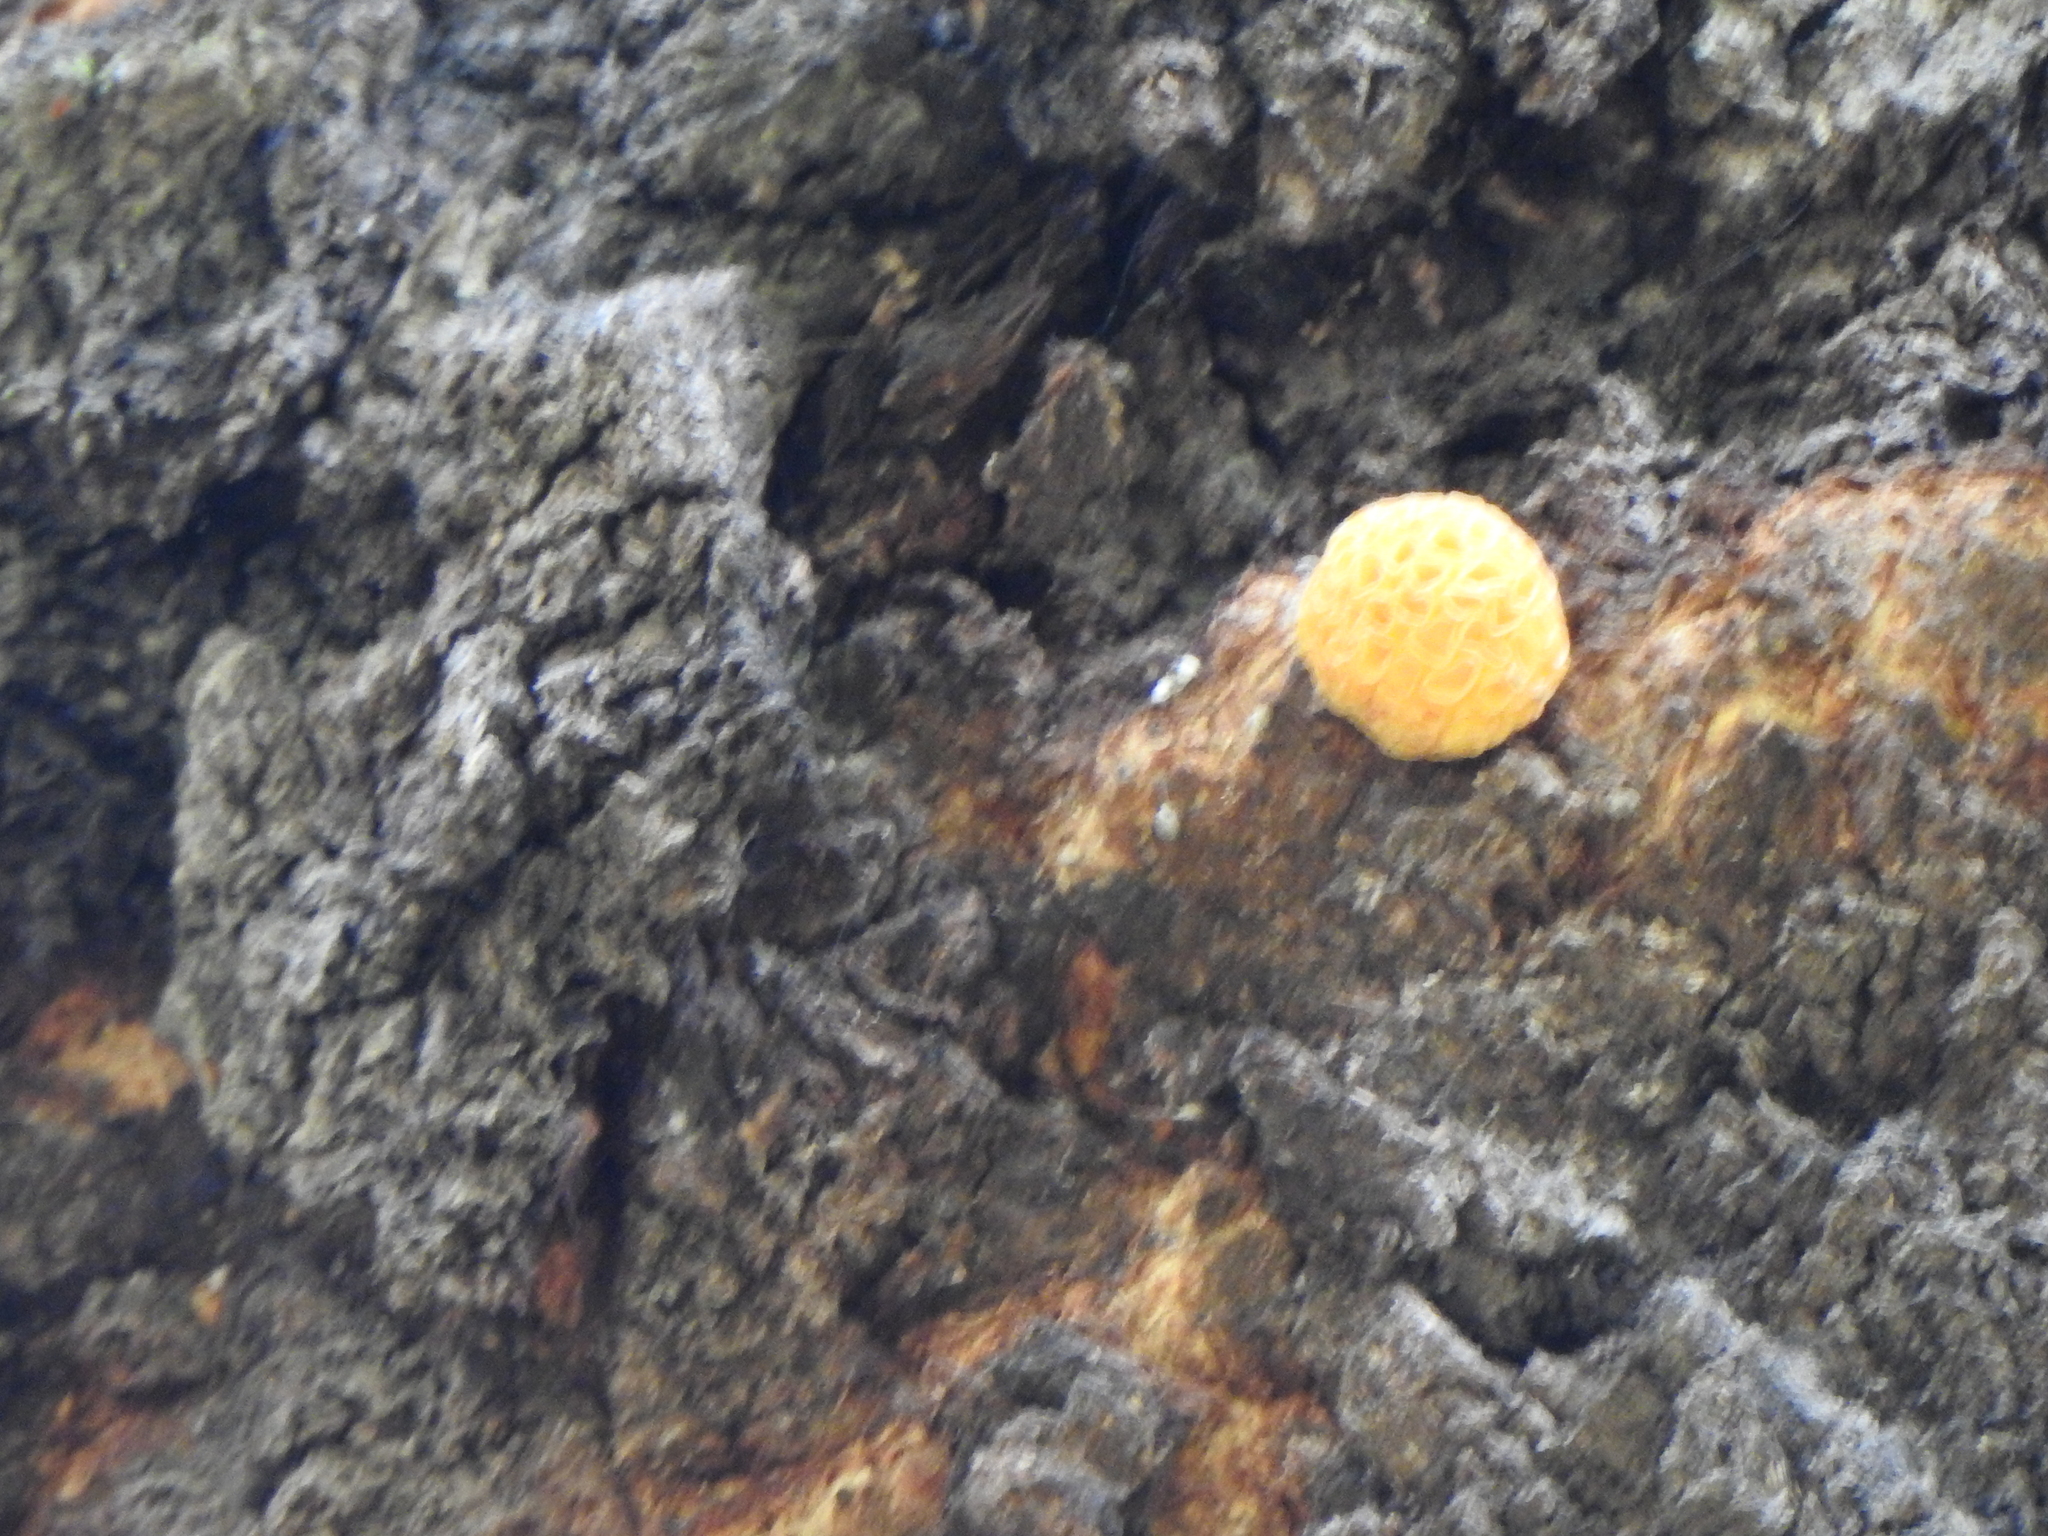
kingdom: Fungi
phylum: Ascomycota
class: Leotiomycetes
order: Cyttariales
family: Cyttariaceae
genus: Cyttaria
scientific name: Cyttaria hariotii
